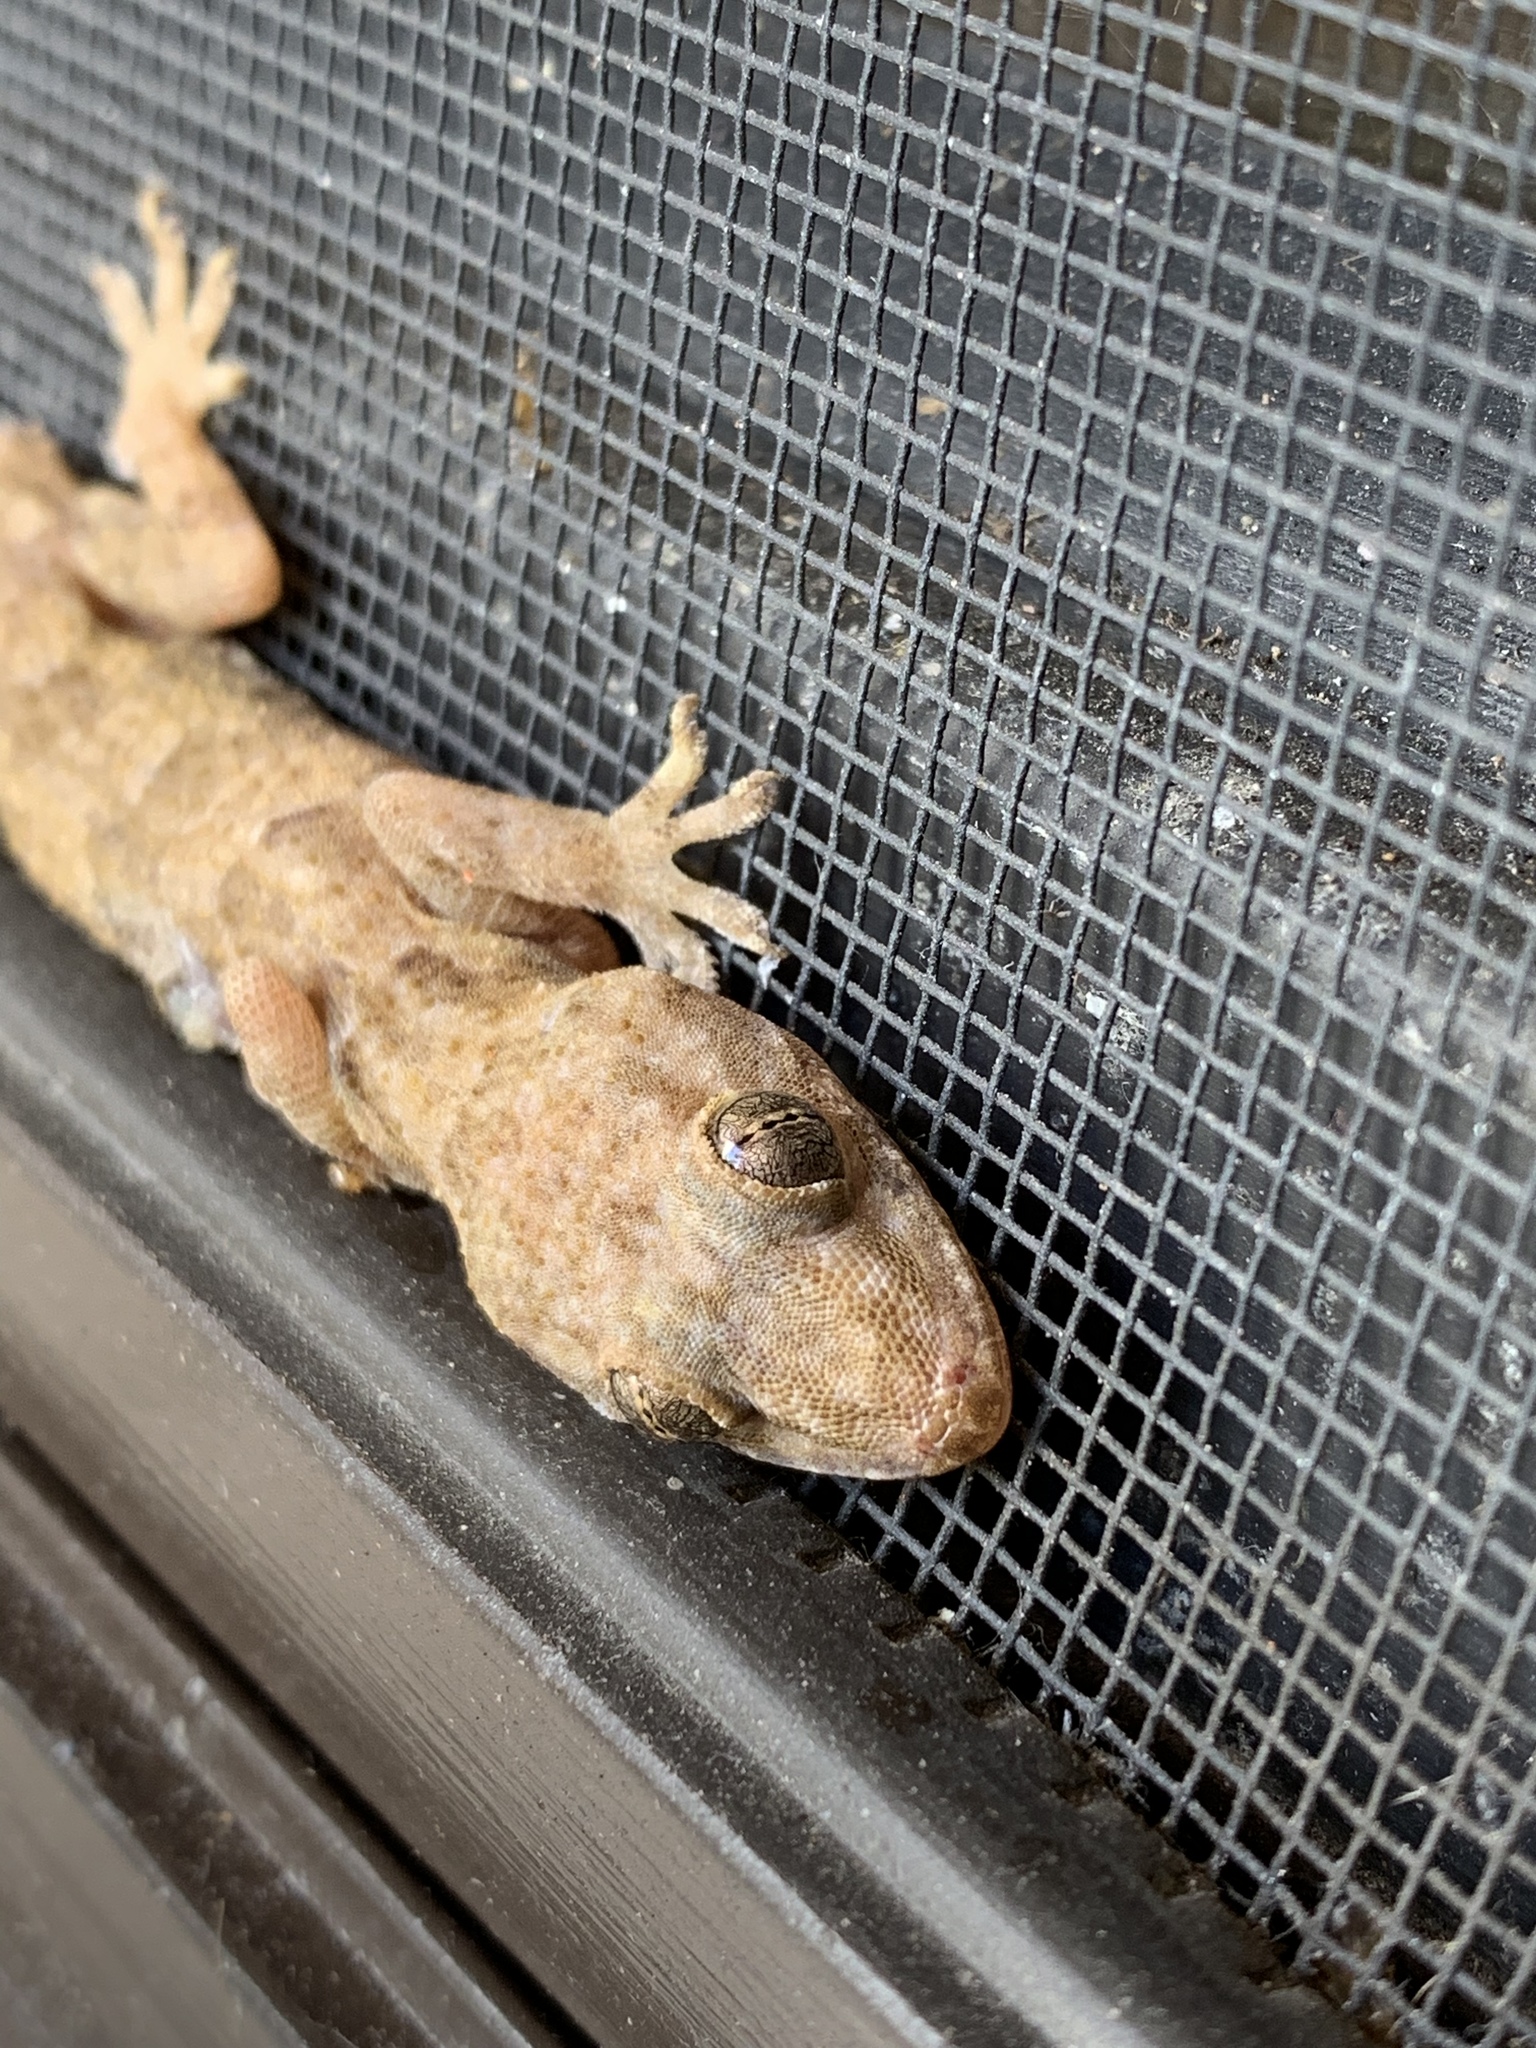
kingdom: Animalia
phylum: Chordata
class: Squamata
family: Gekkonidae
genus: Hemidactylus
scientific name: Hemidactylus mabouia
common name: House gecko
